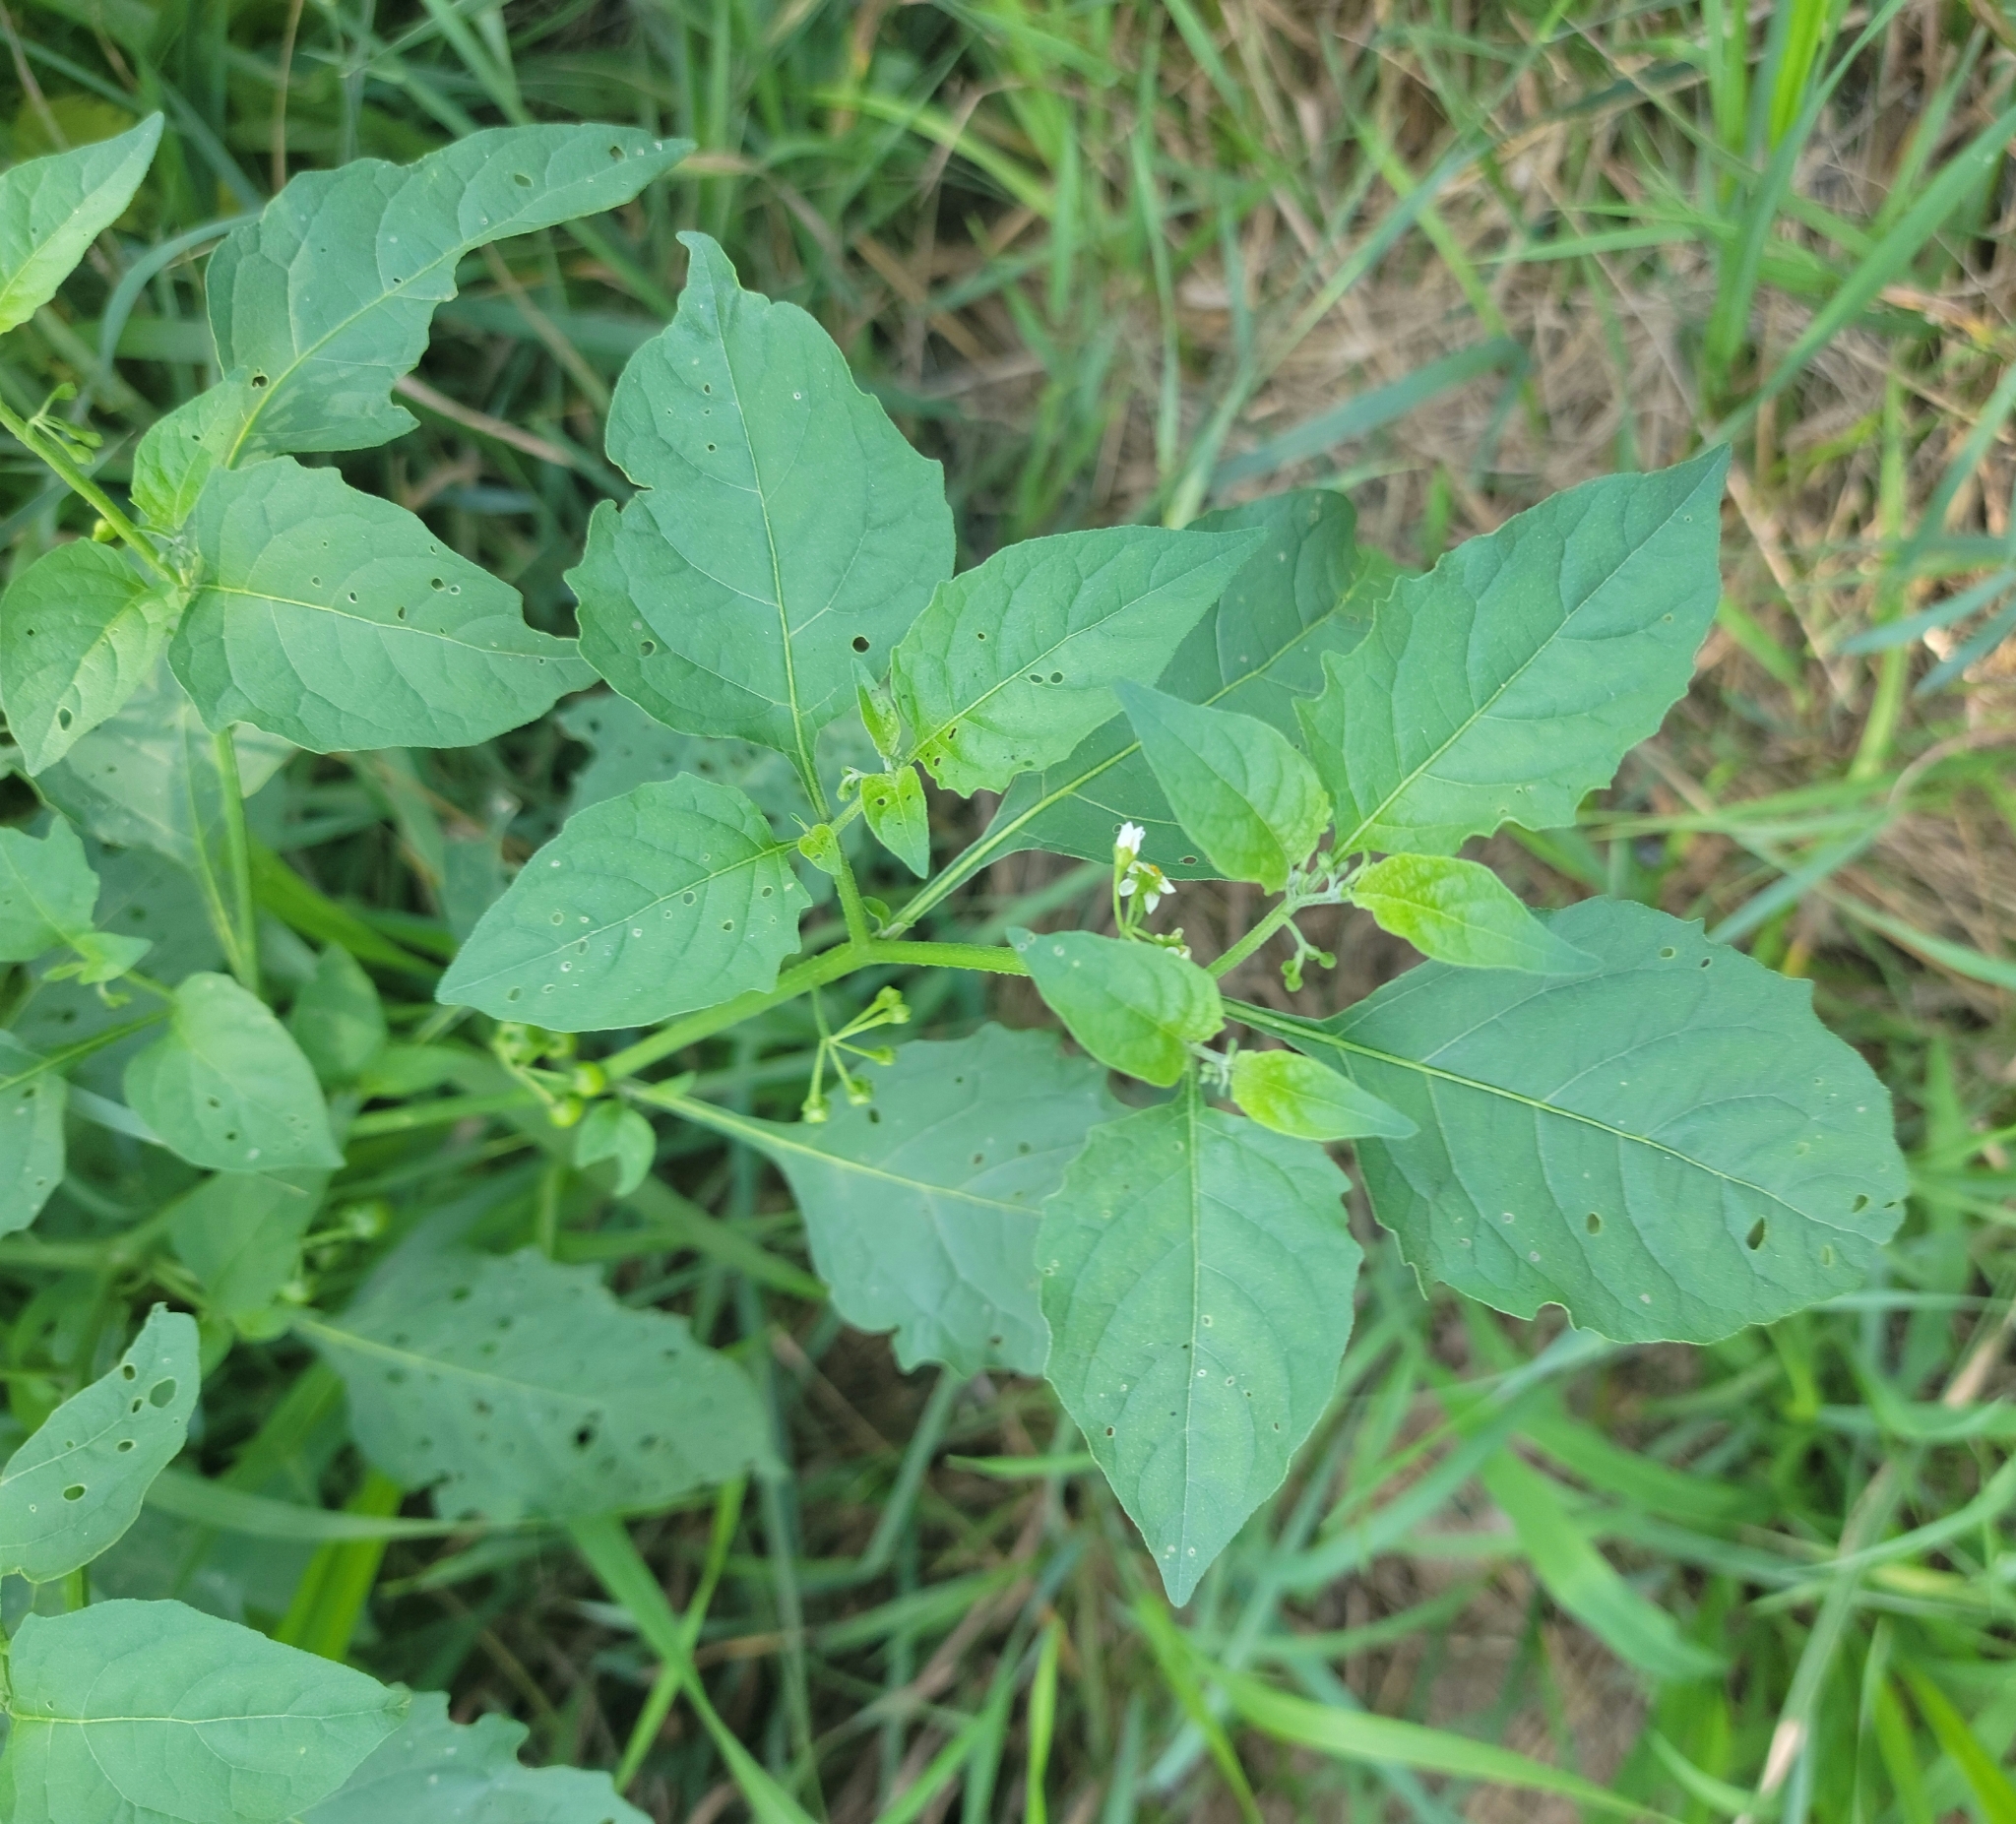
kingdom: Plantae
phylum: Tracheophyta
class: Magnoliopsida
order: Solanales
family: Solanaceae
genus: Solanum
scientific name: Solanum emulans
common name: Eastern black nightshade
